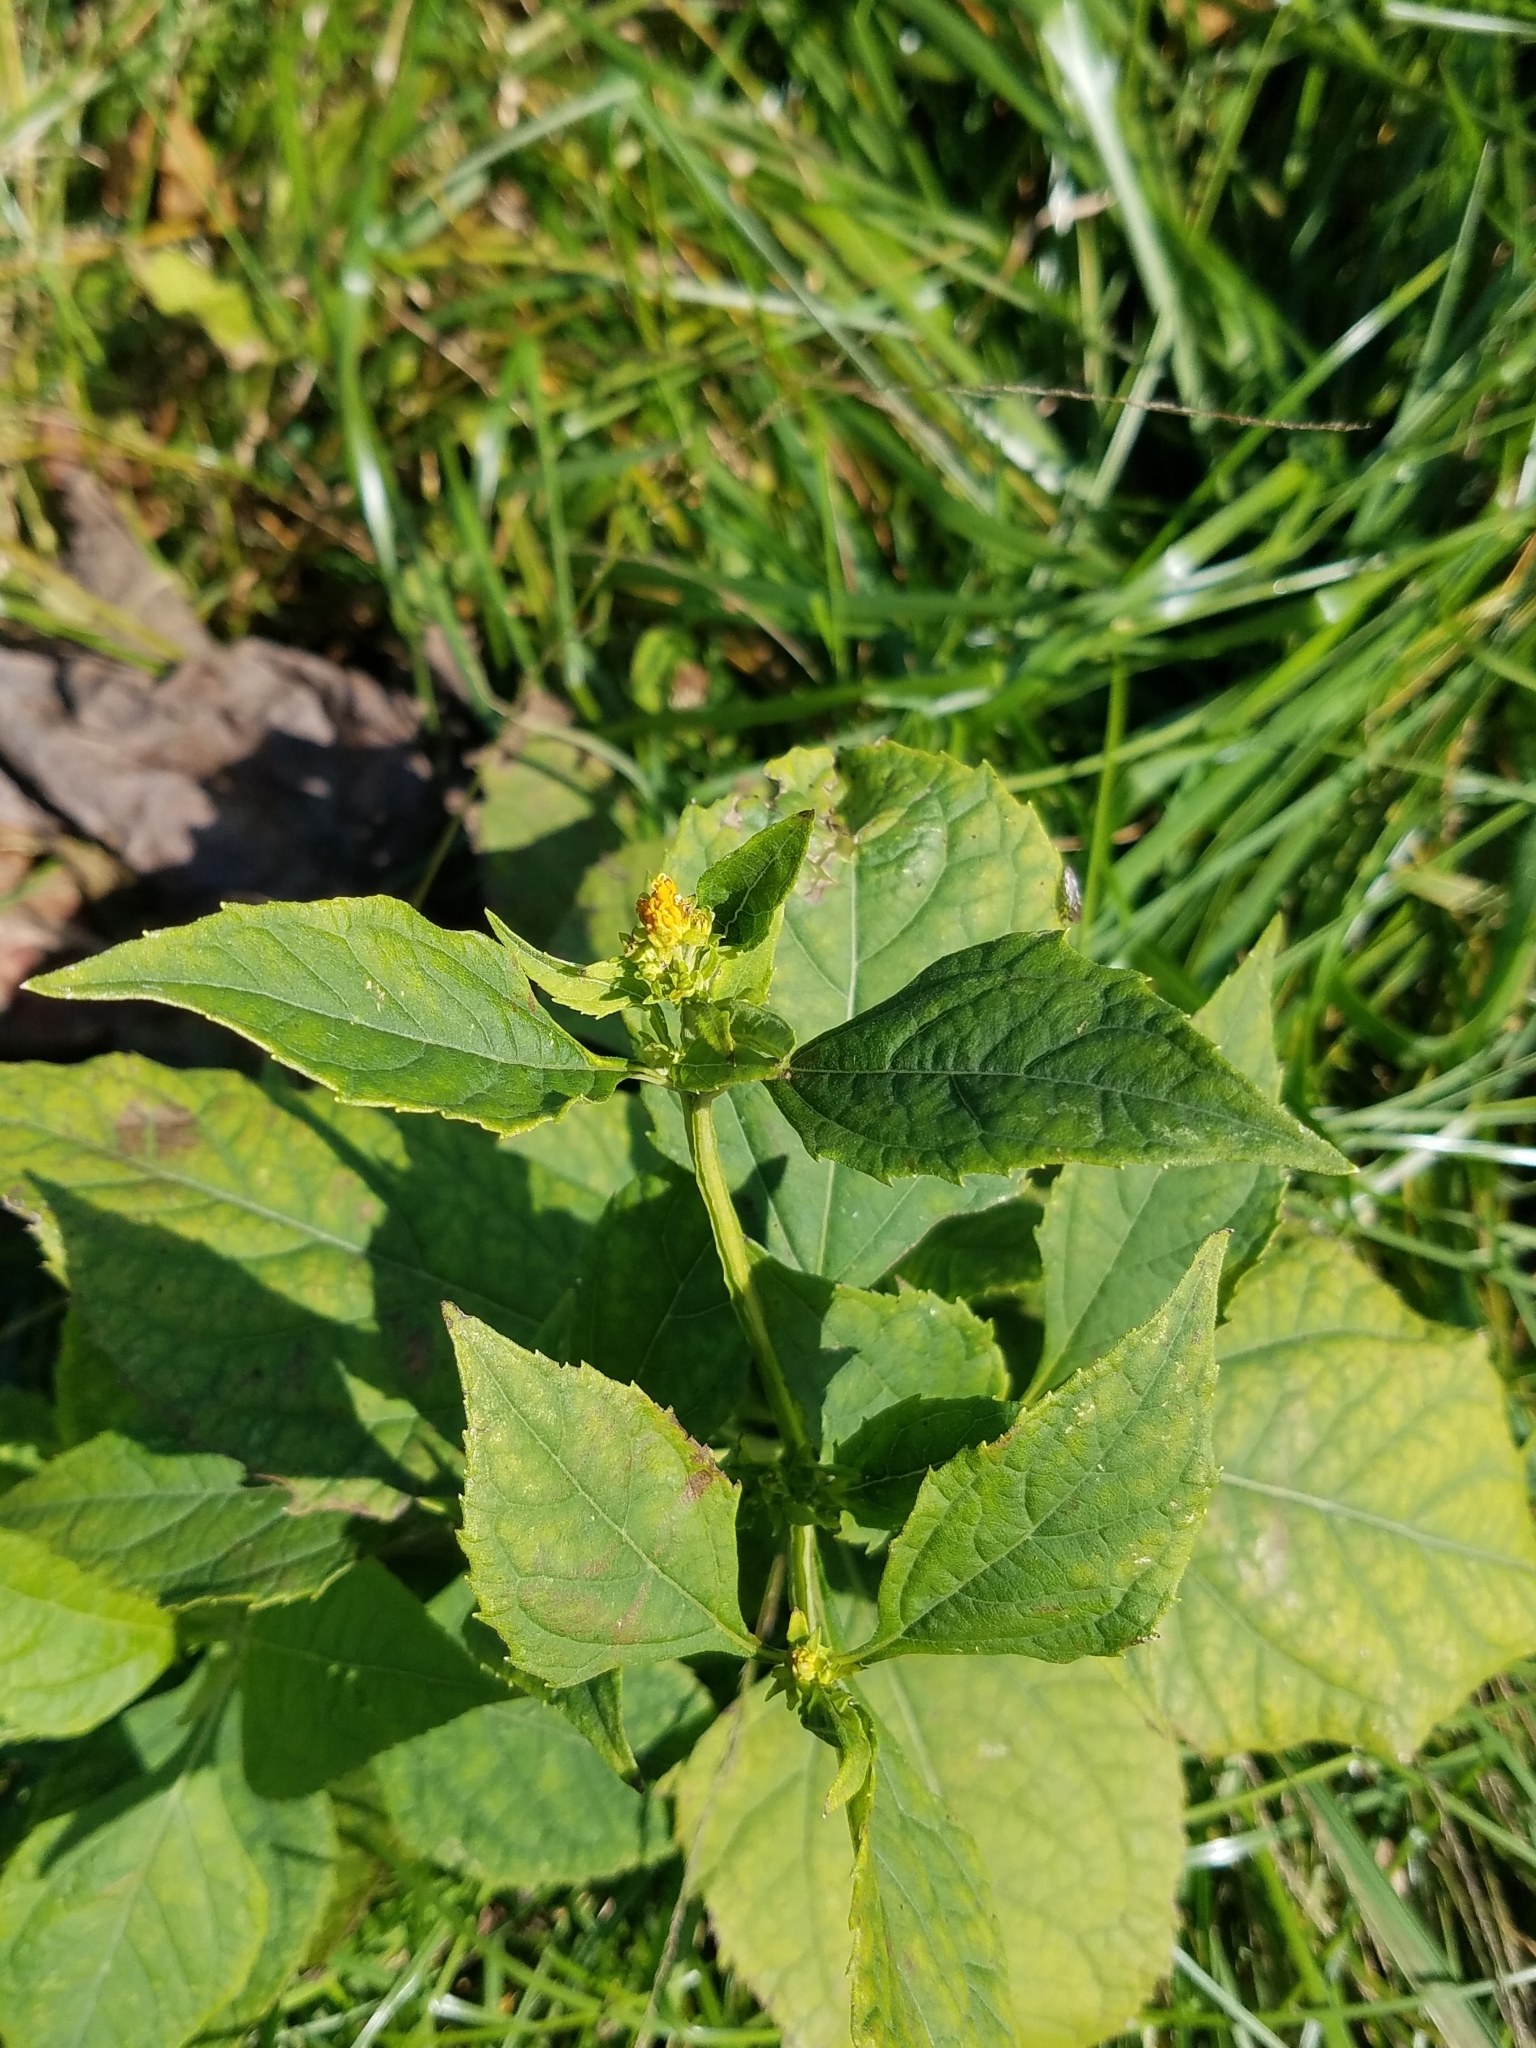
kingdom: Plantae
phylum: Tracheophyta
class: Magnoliopsida
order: Asterales
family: Asteraceae
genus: Verbesina
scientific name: Verbesina occidentalis
